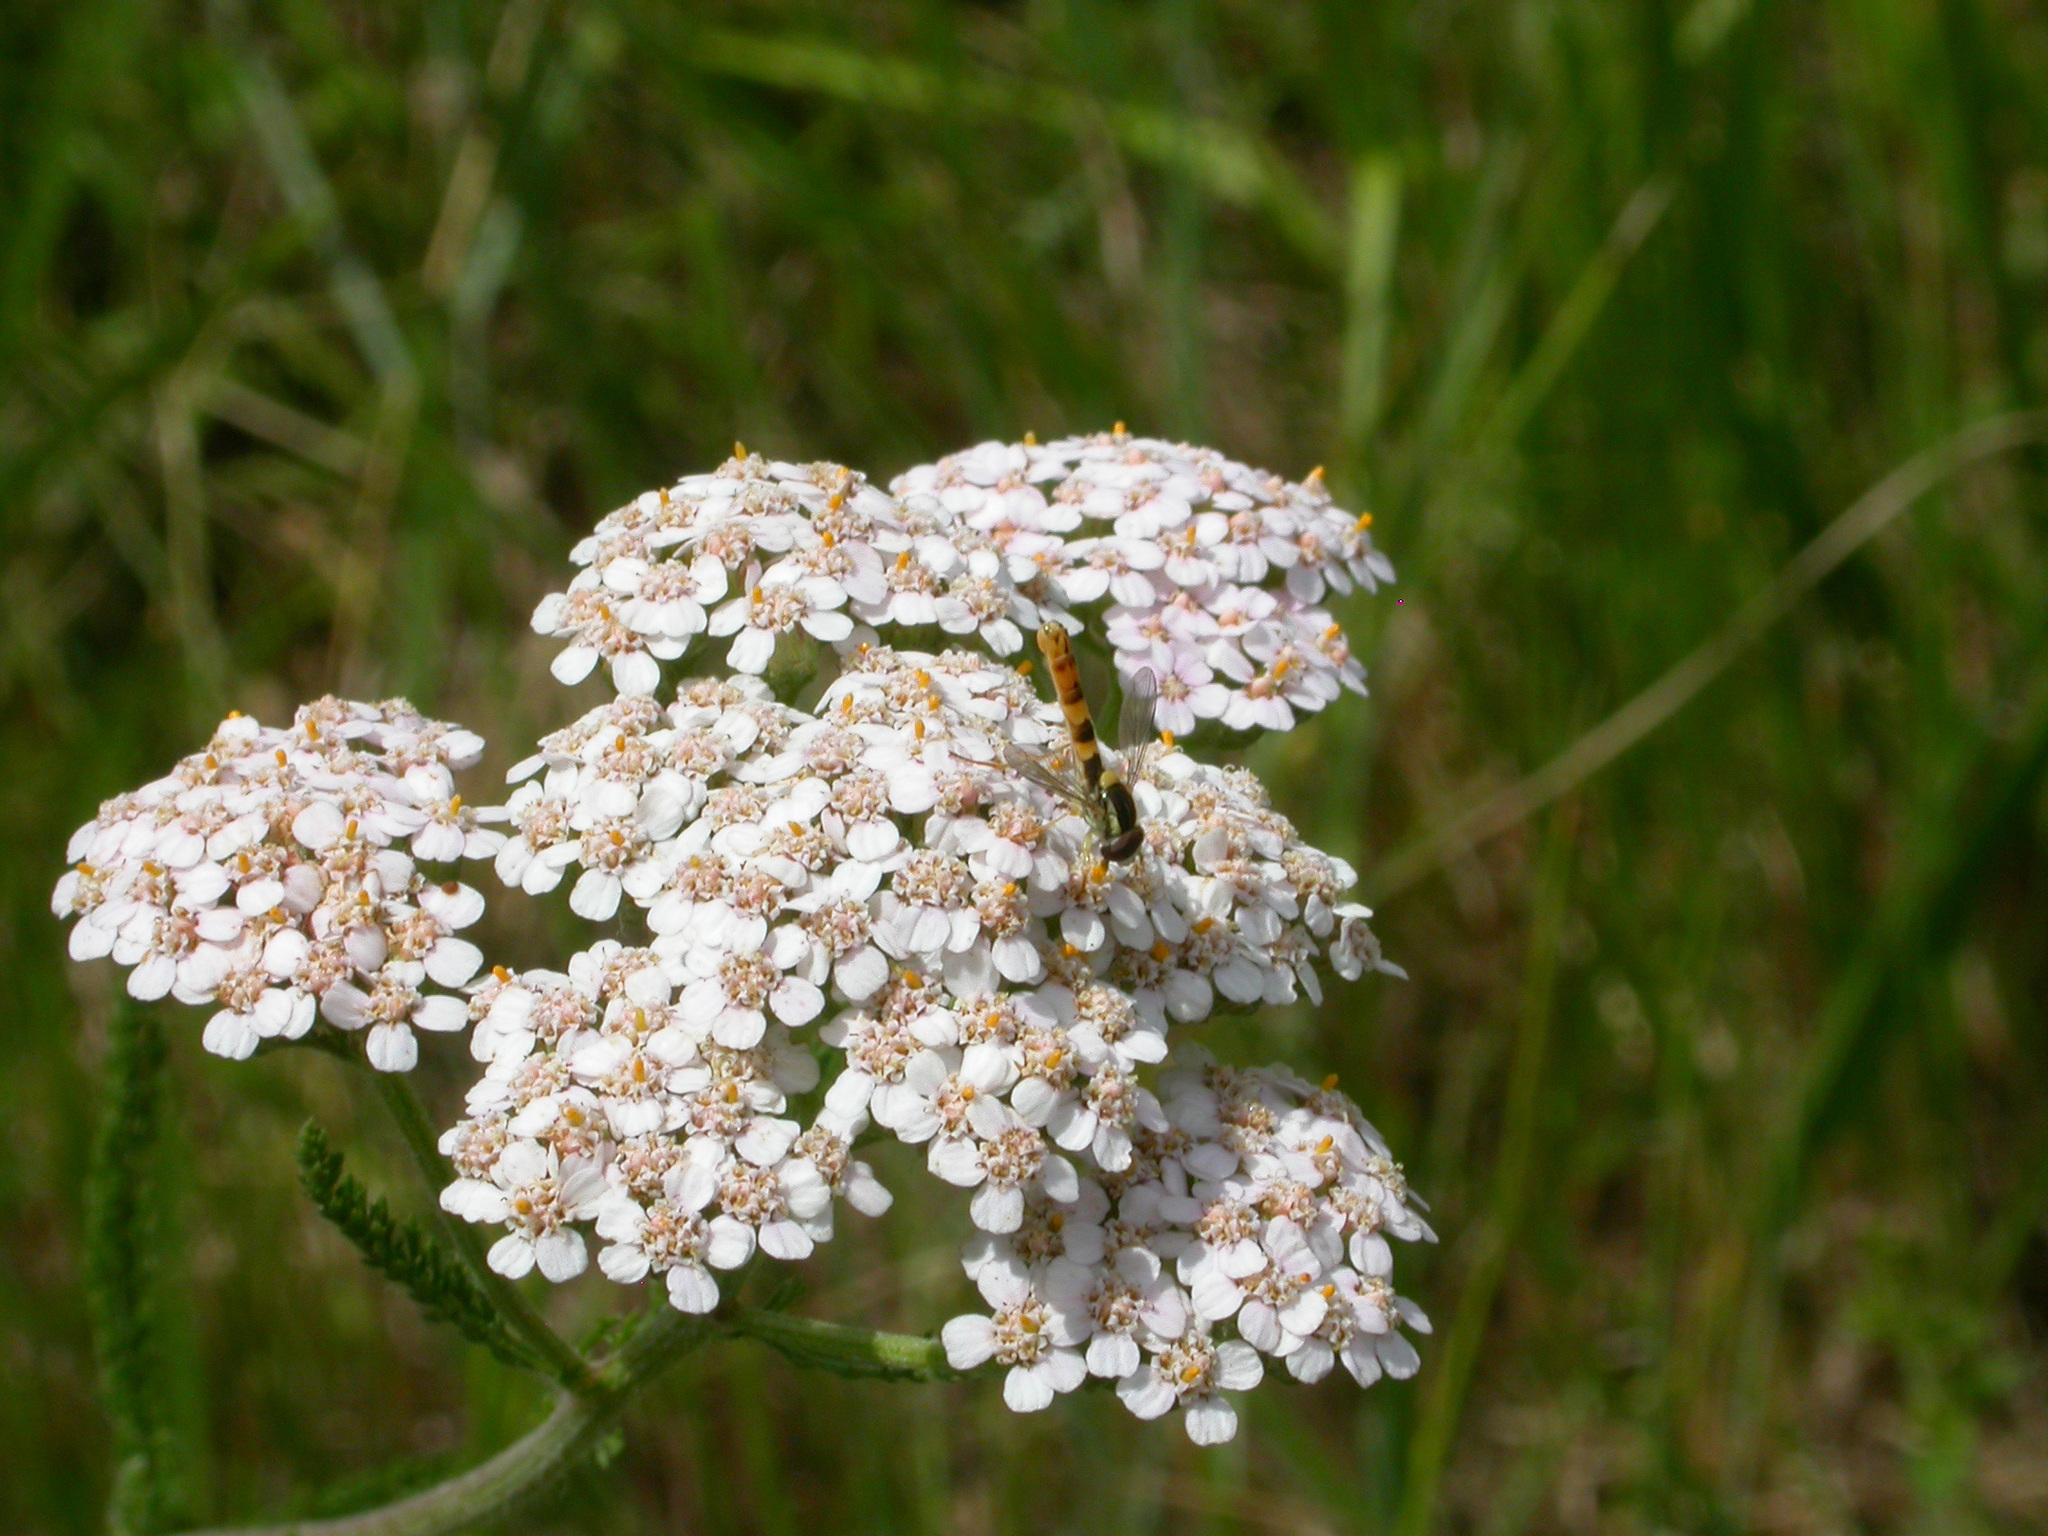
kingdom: Animalia
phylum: Arthropoda
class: Insecta
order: Diptera
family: Syrphidae
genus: Sphaerophoria
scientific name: Sphaerophoria scripta
